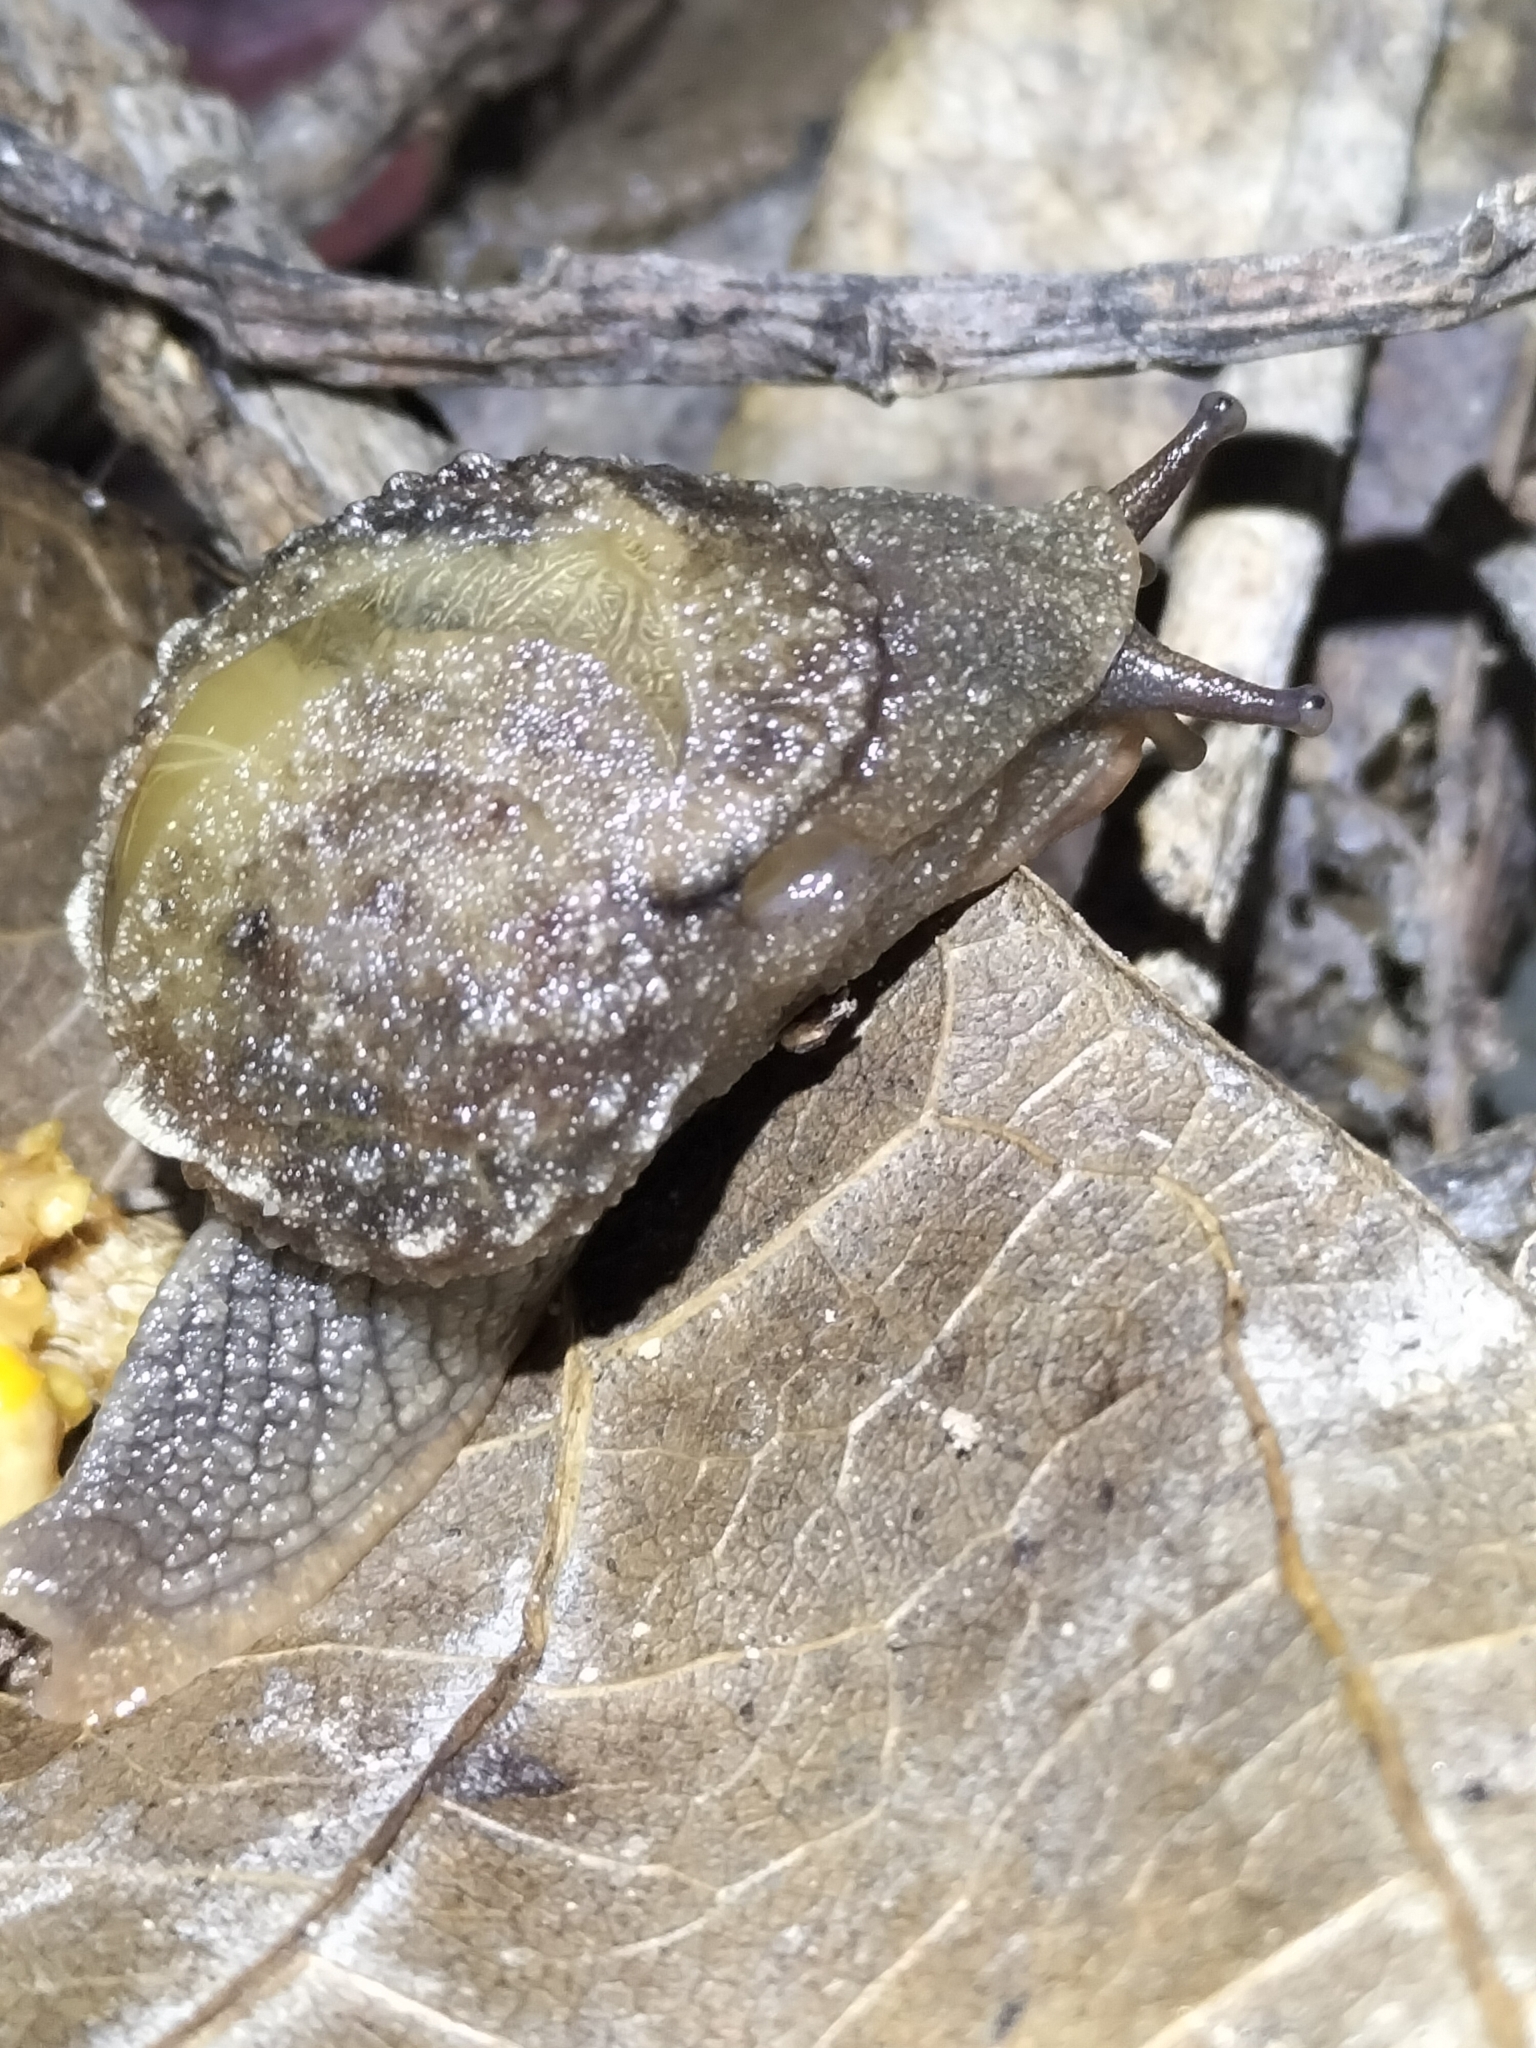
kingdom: Animalia
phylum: Mollusca
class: Gastropoda
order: Stylommatophora
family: Helicarionidae
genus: Fastosarion
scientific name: Fastosarion brazieri
